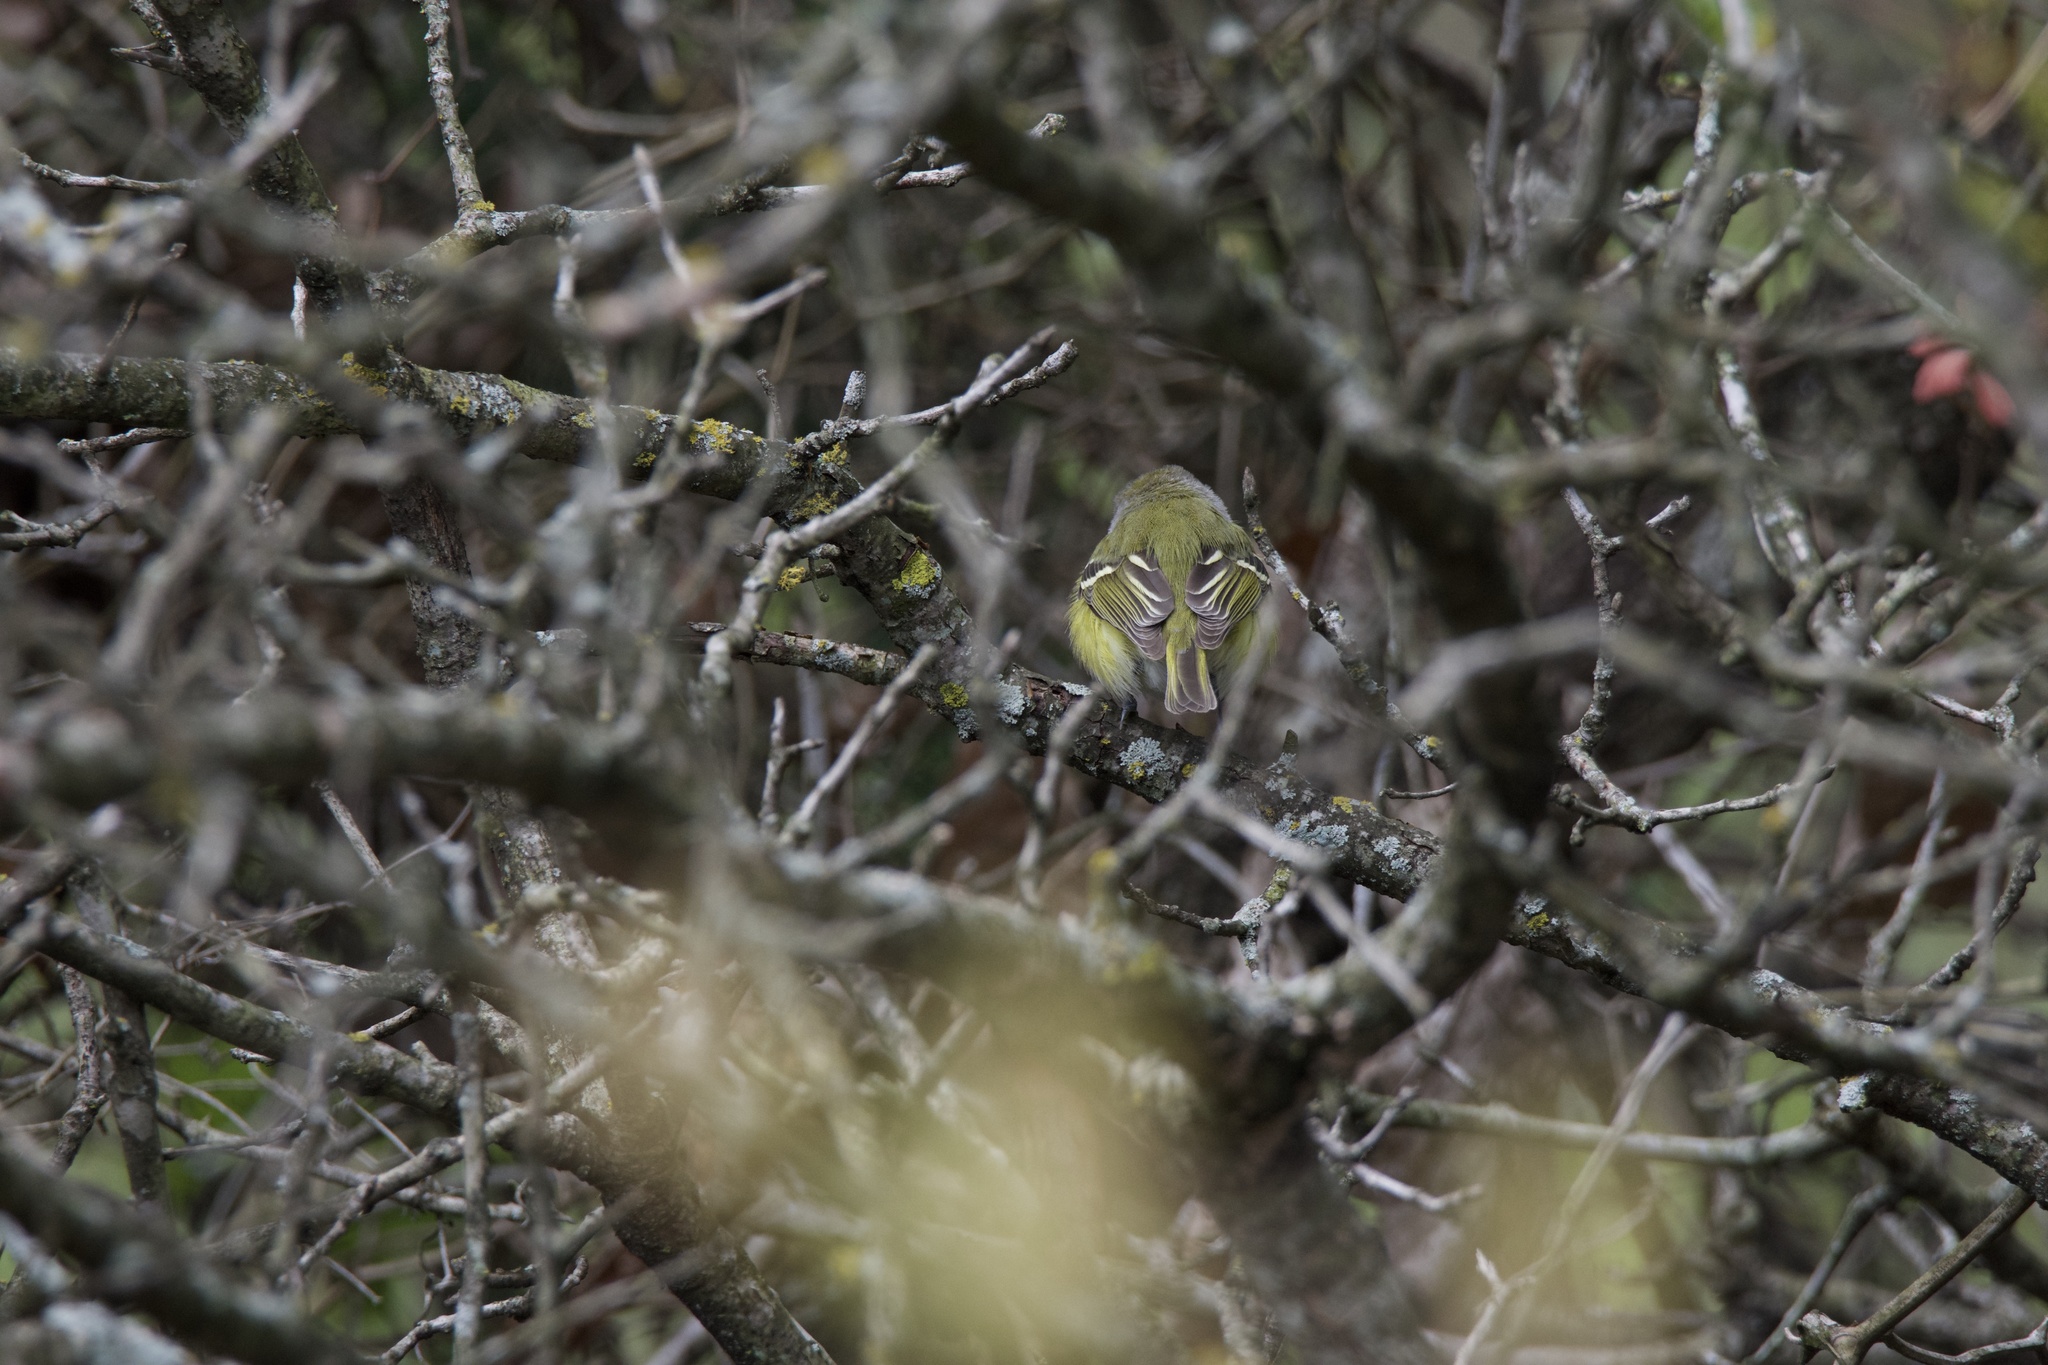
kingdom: Animalia
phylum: Chordata
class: Aves
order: Passeriformes
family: Vireonidae
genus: Vireo
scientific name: Vireo griseus
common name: White-eyed vireo
